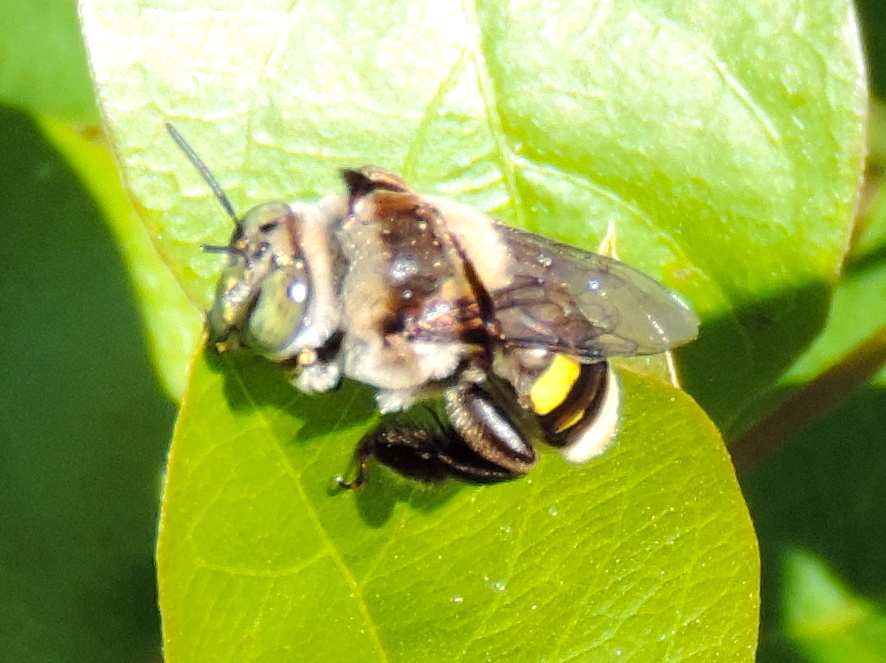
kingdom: Animalia
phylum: Arthropoda
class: Insecta
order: Hymenoptera
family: Apidae
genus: Centris
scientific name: Centris flavofasciata
